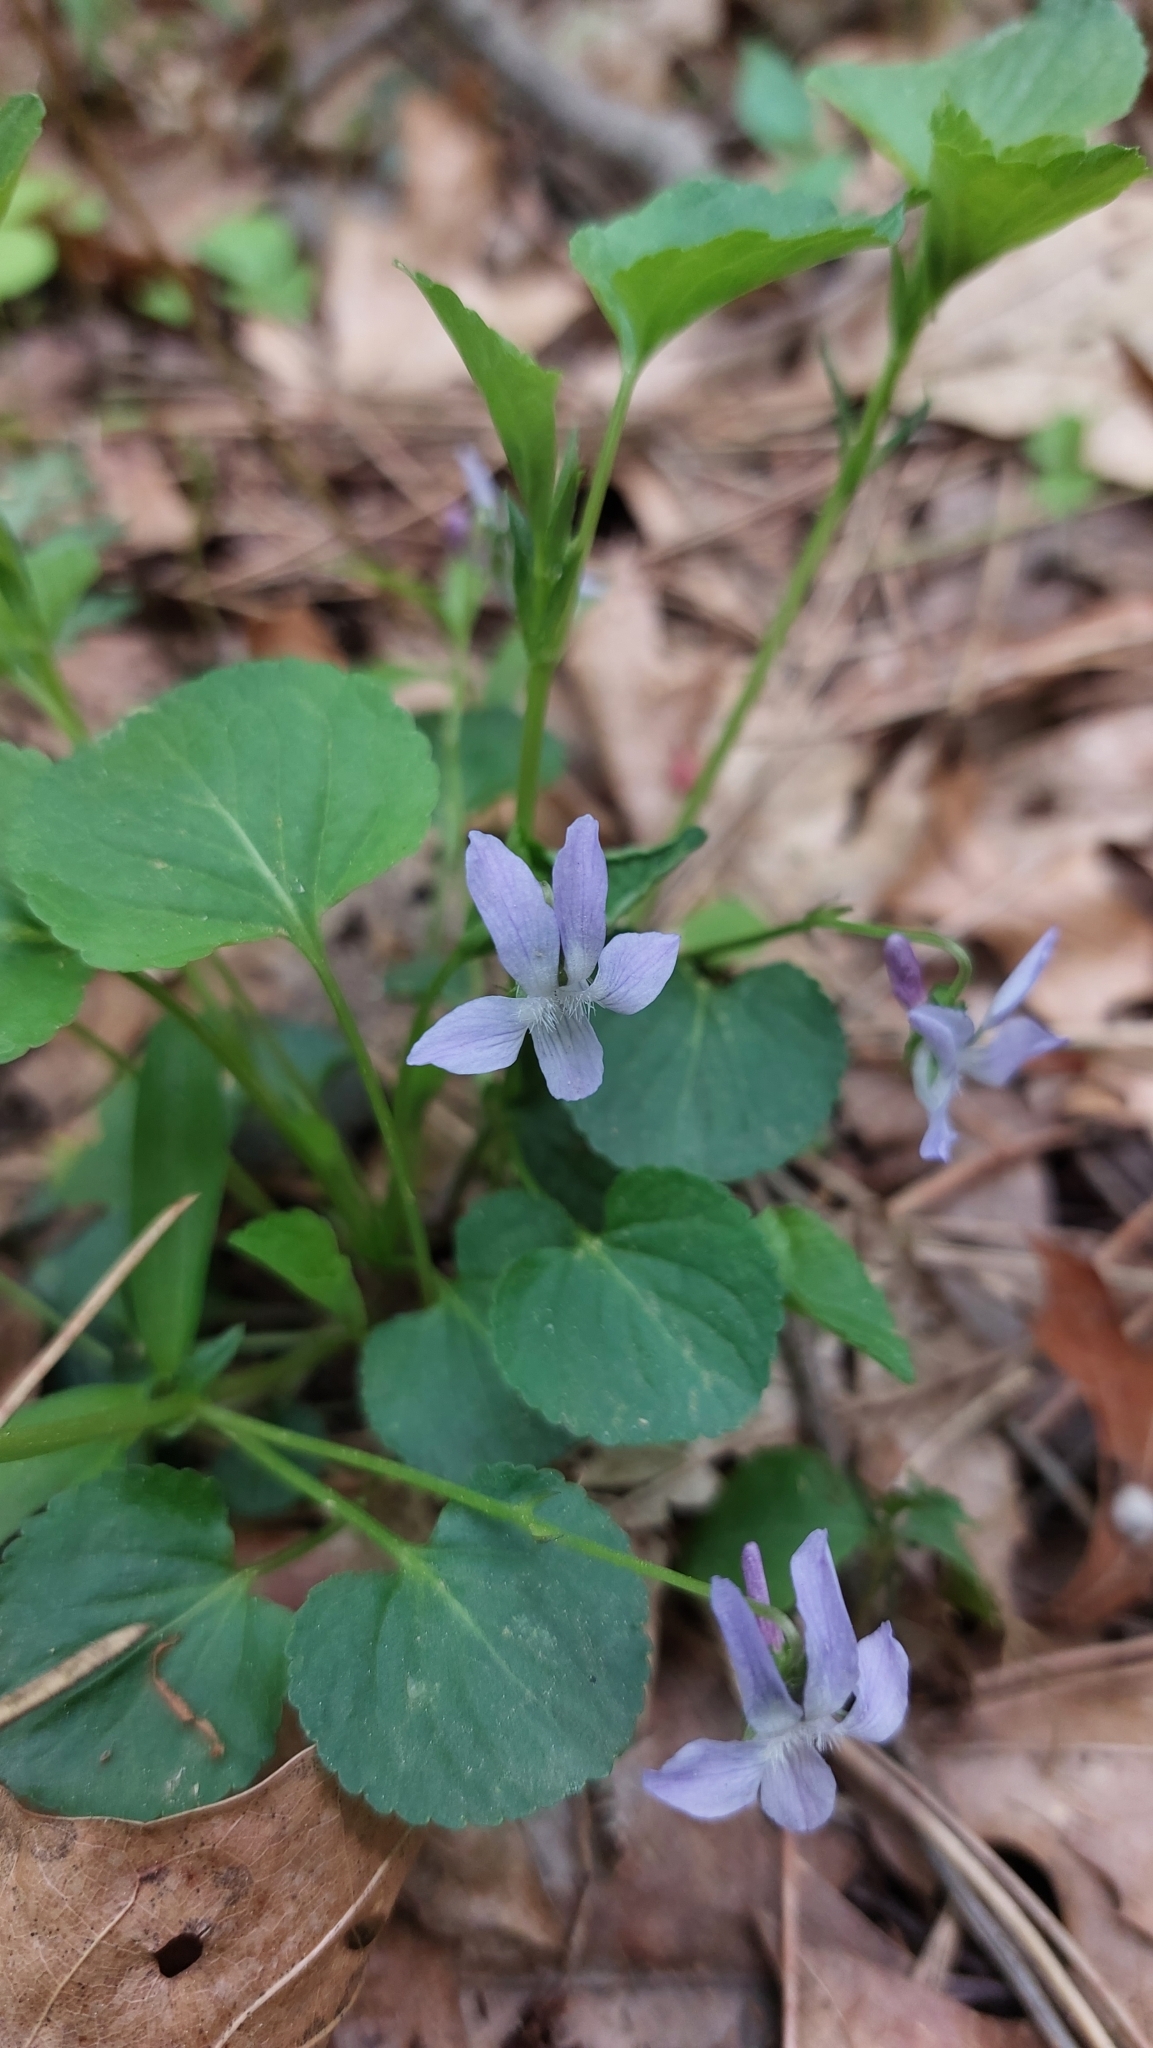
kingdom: Plantae
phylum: Tracheophyta
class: Magnoliopsida
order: Malpighiales
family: Violaceae
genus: Viola
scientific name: Viola labradorica
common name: Labrador violet
